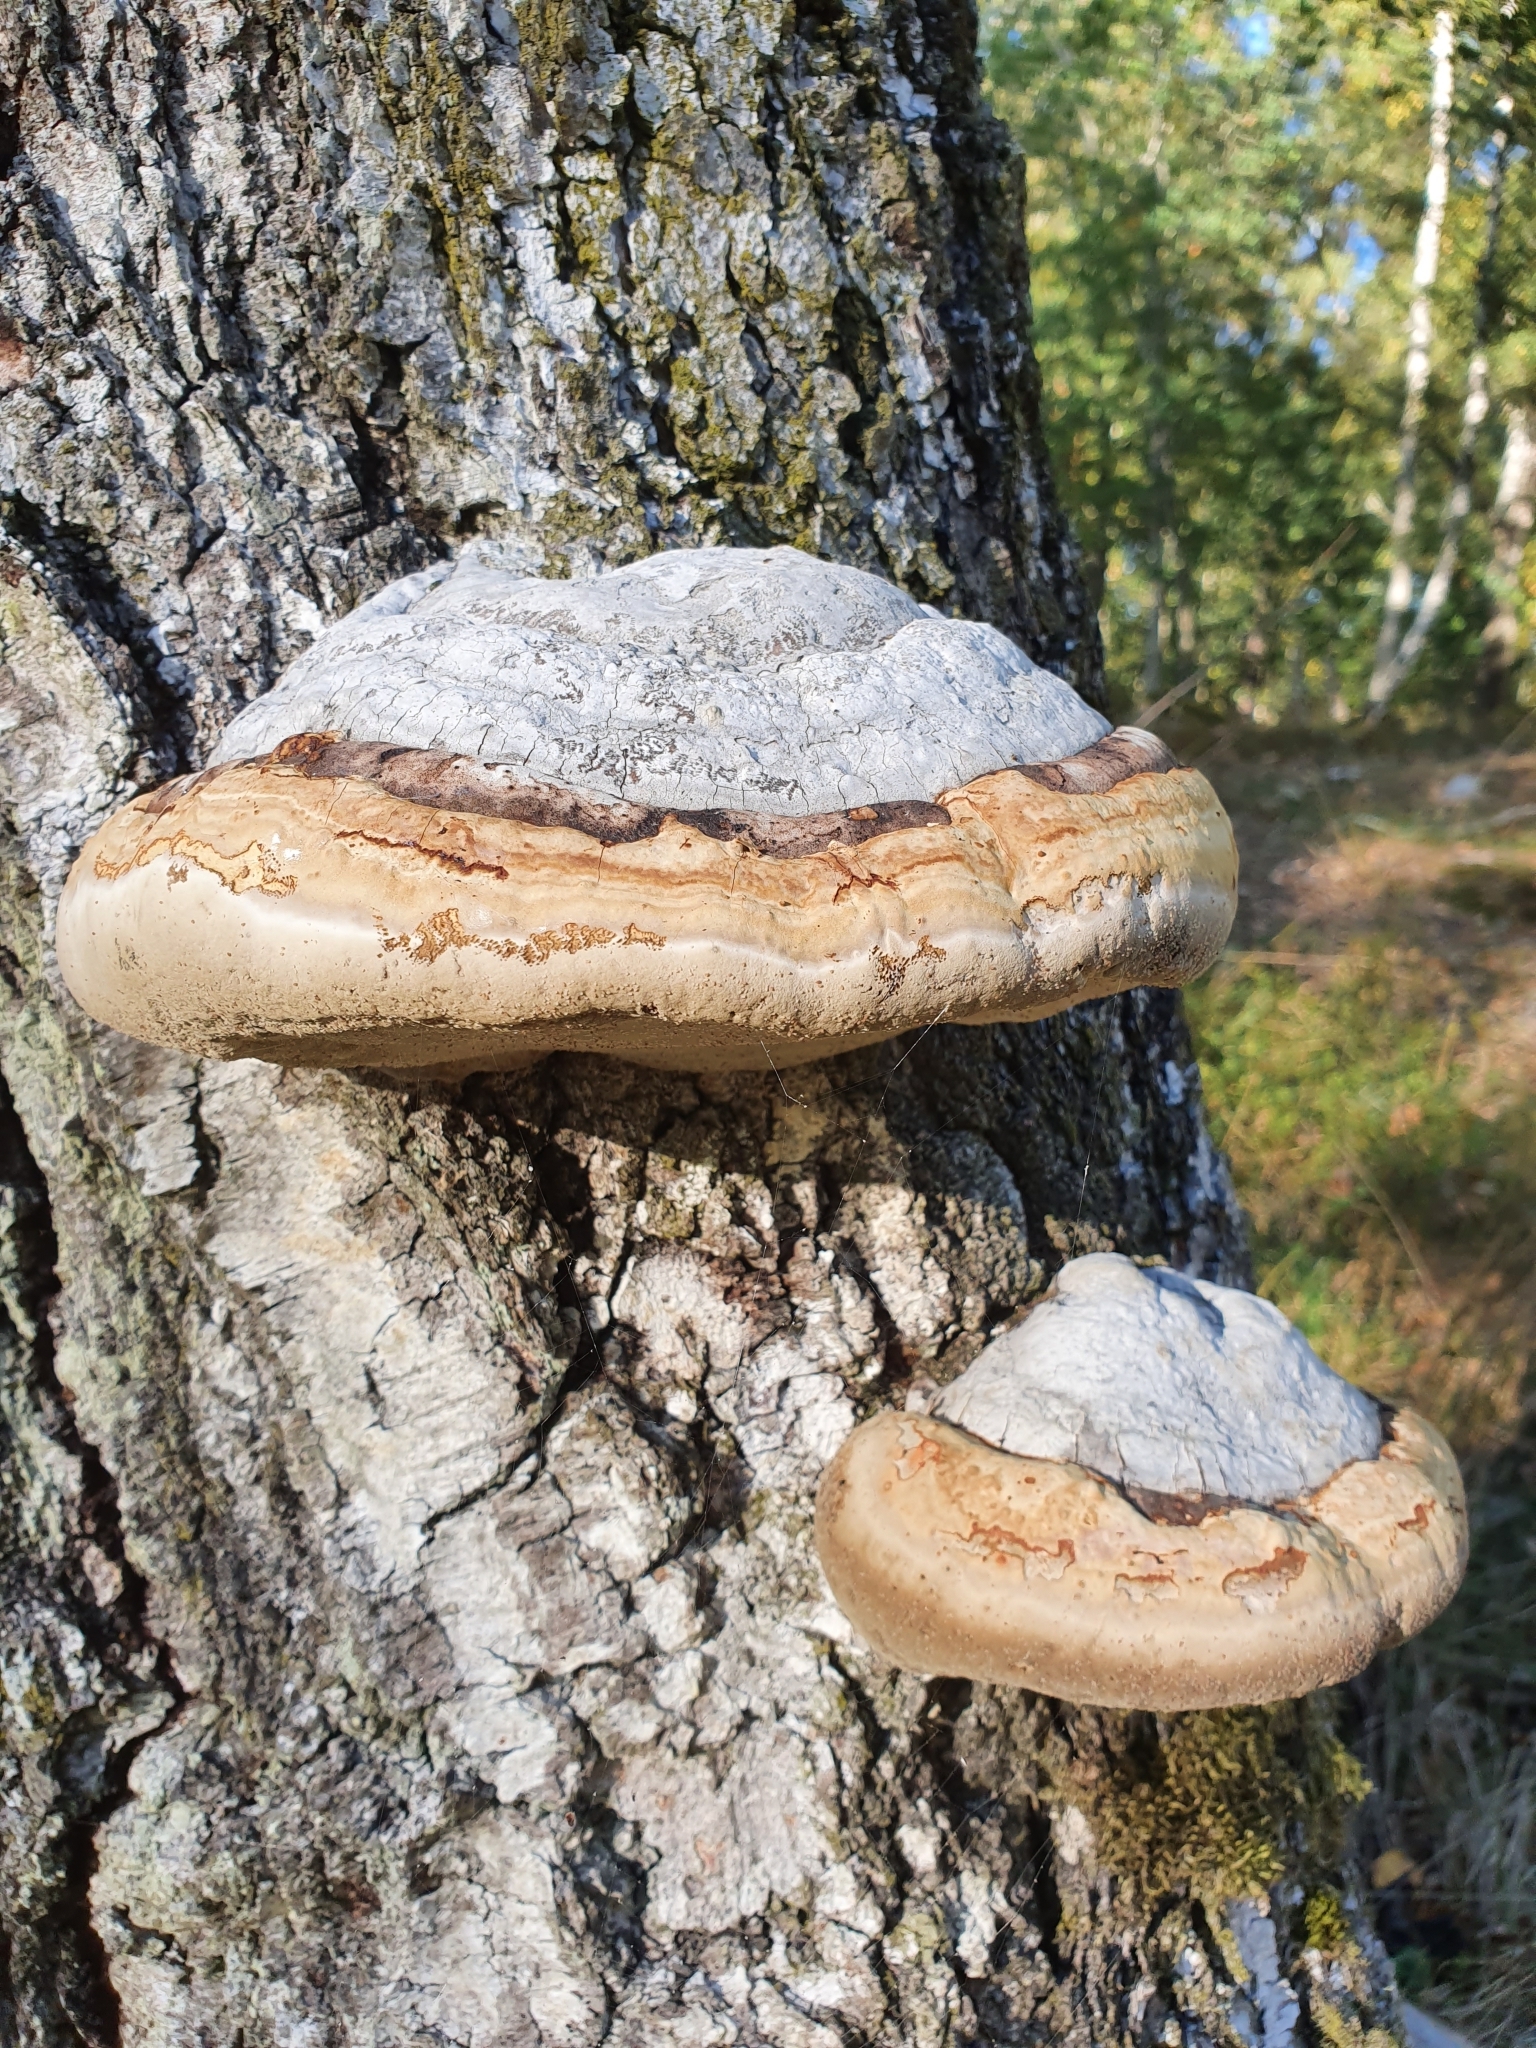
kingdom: Fungi
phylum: Basidiomycota
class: Agaricomycetes
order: Polyporales
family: Polyporaceae
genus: Fomes
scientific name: Fomes fomentarius
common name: Hoof fungus
